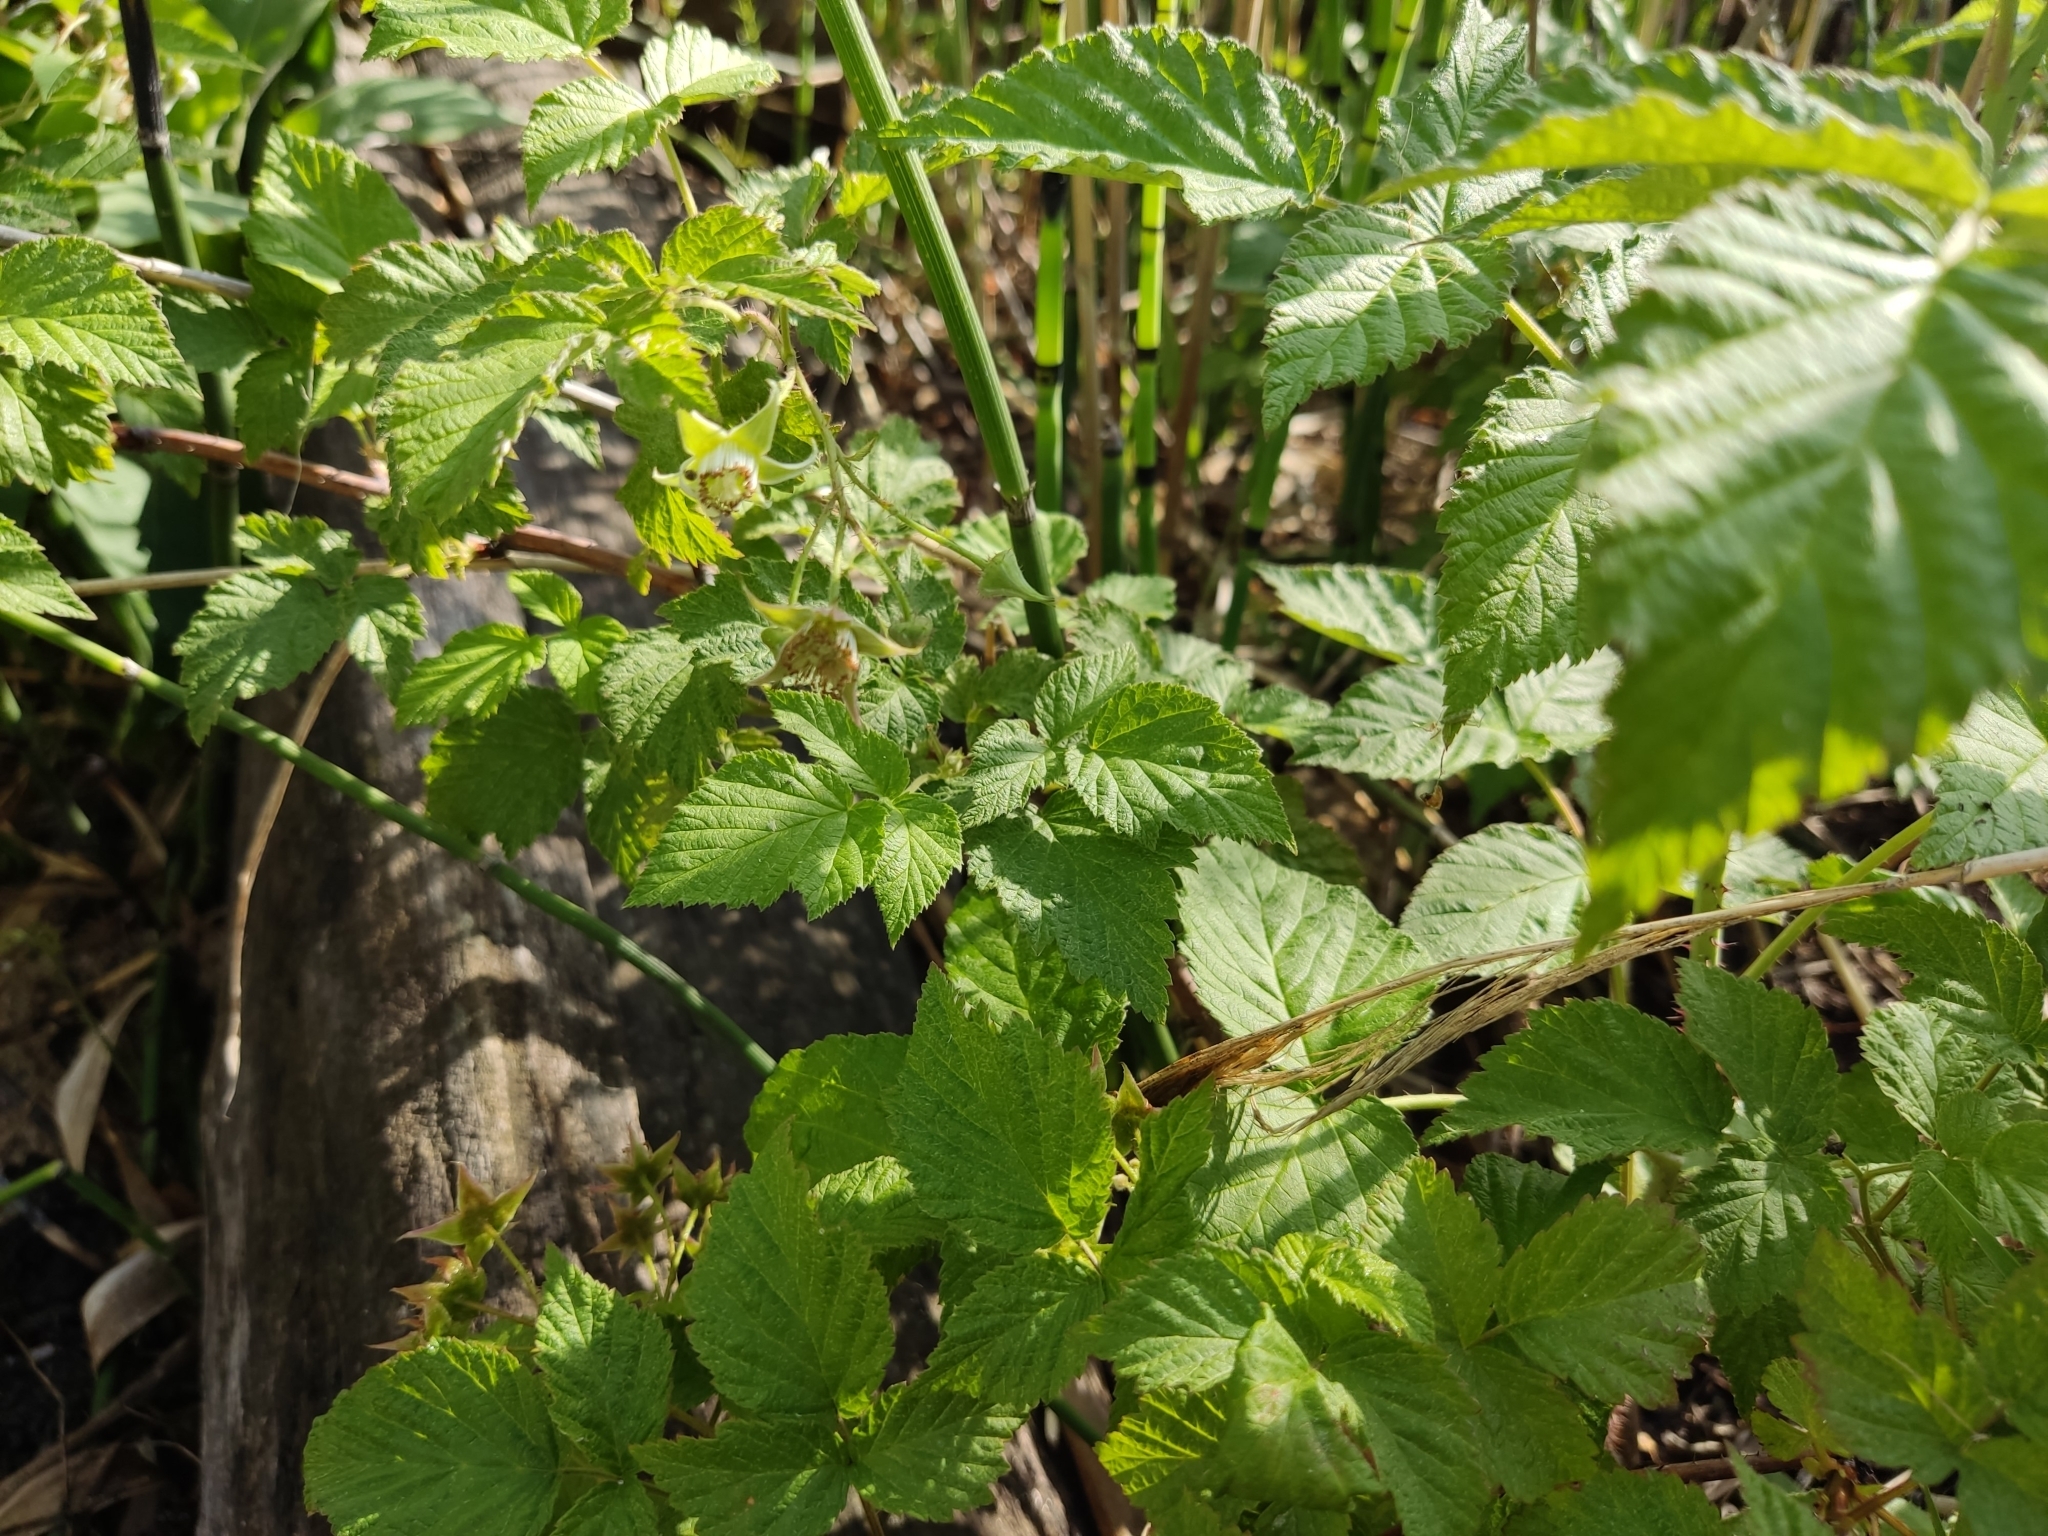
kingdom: Plantae
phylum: Tracheophyta
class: Magnoliopsida
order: Rosales
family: Rosaceae
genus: Rubus
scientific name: Rubus idaeus
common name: Raspberry
